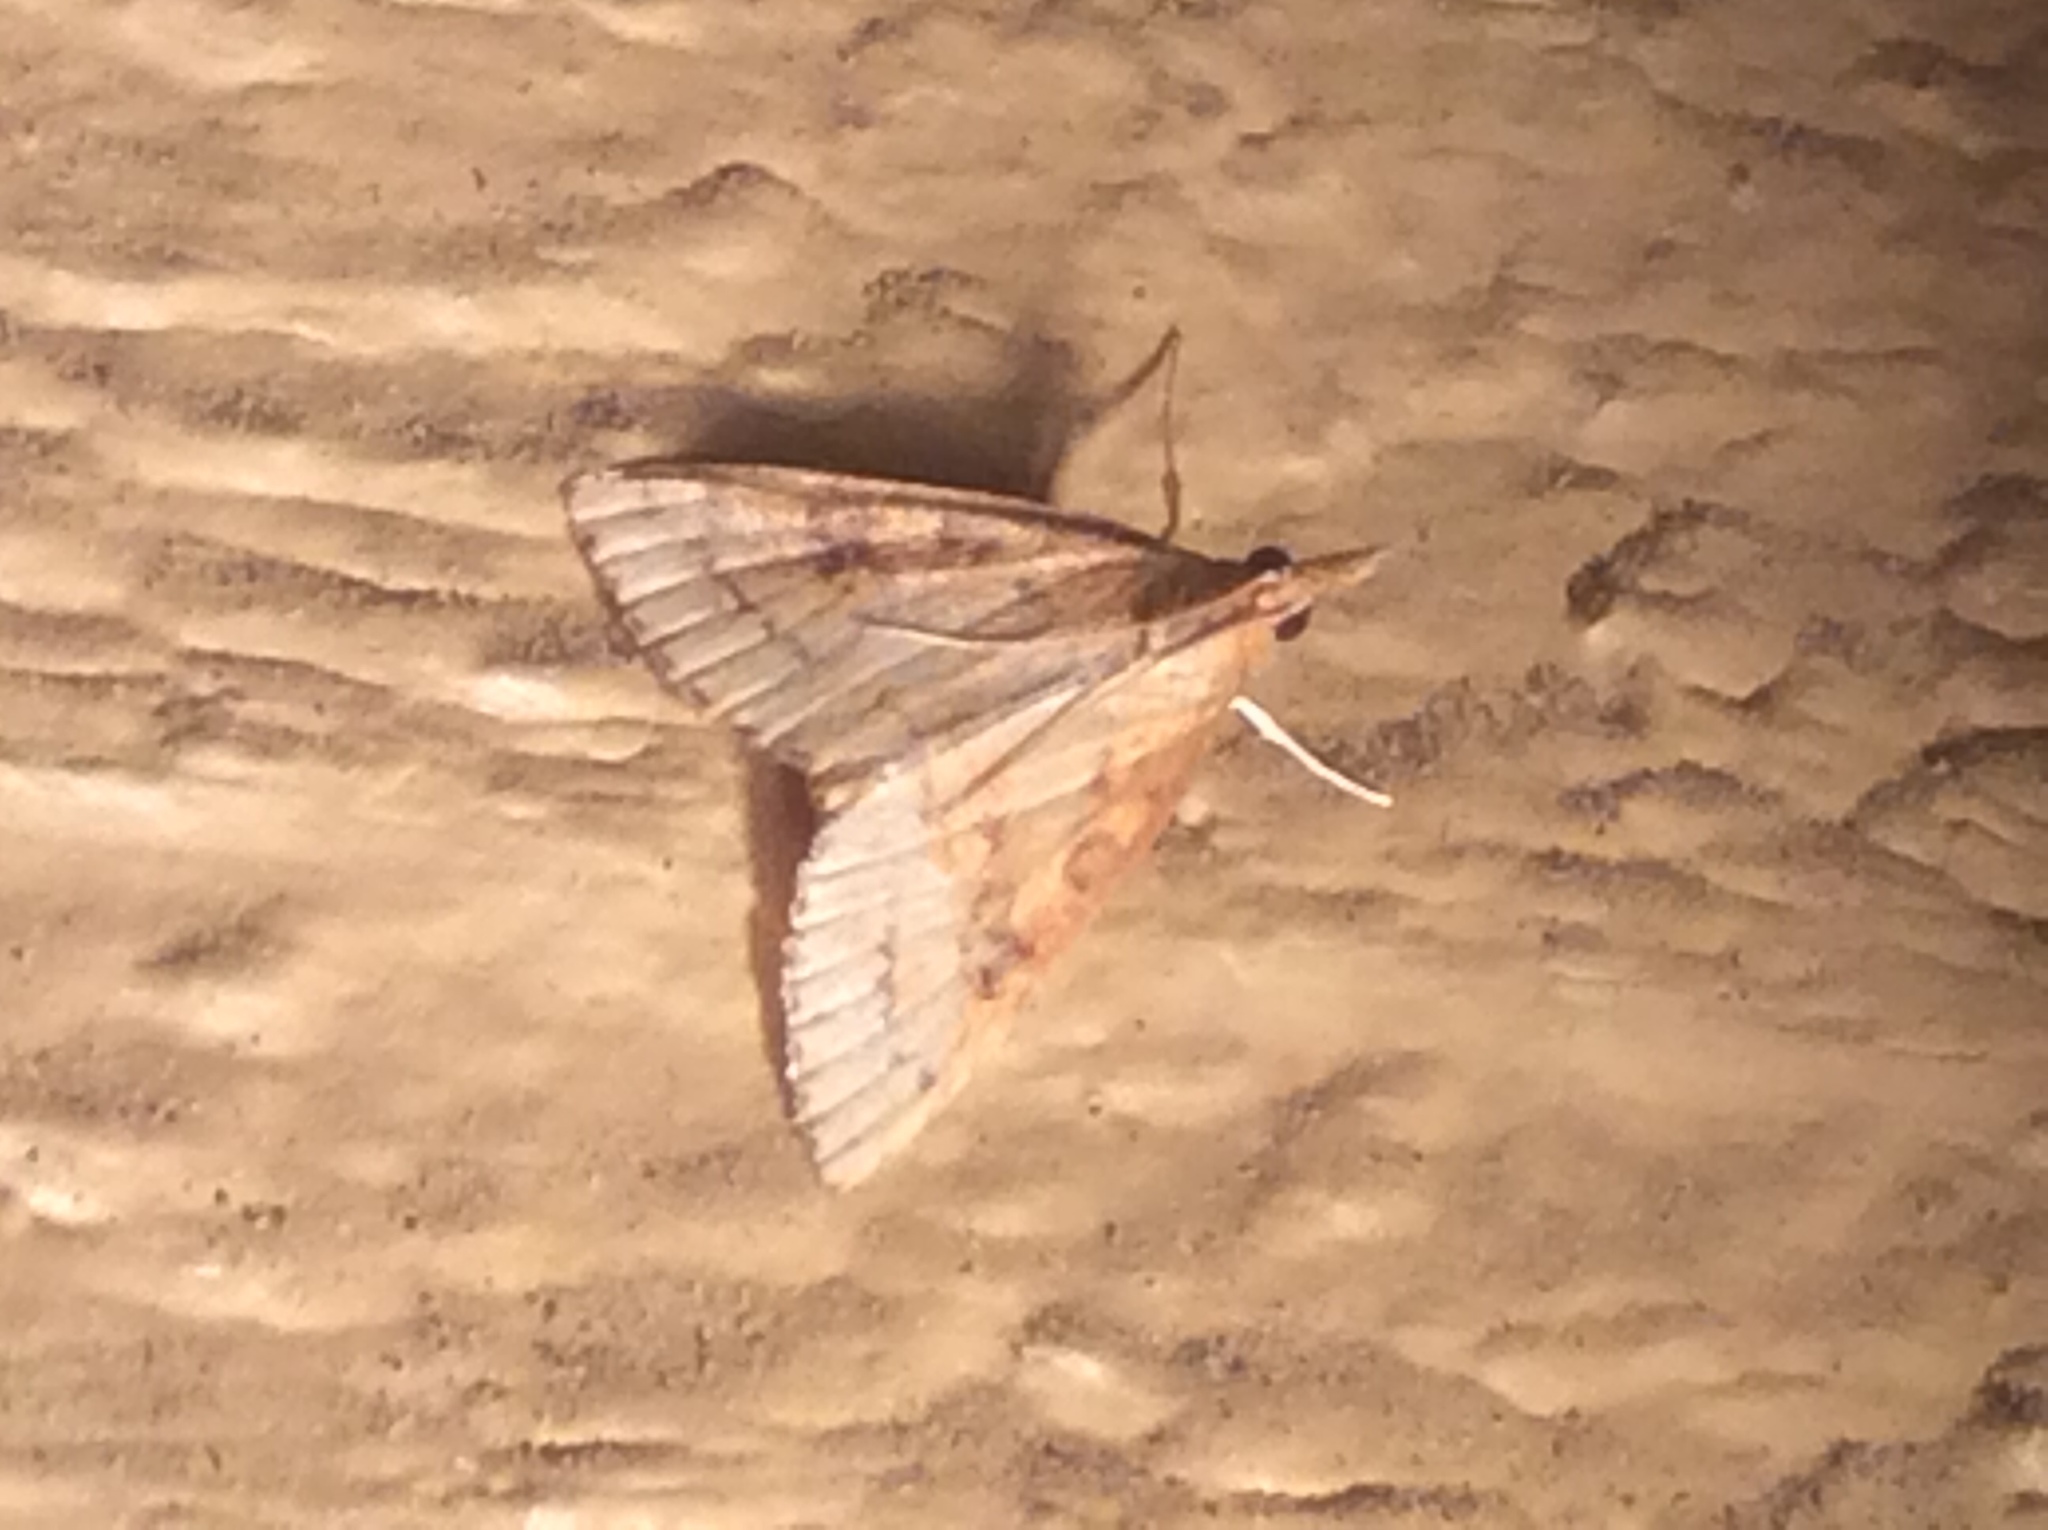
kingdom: Animalia
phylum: Arthropoda
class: Insecta
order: Lepidoptera
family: Crambidae
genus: Udea
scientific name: Udea rubigalis
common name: Celery leaftier moth
